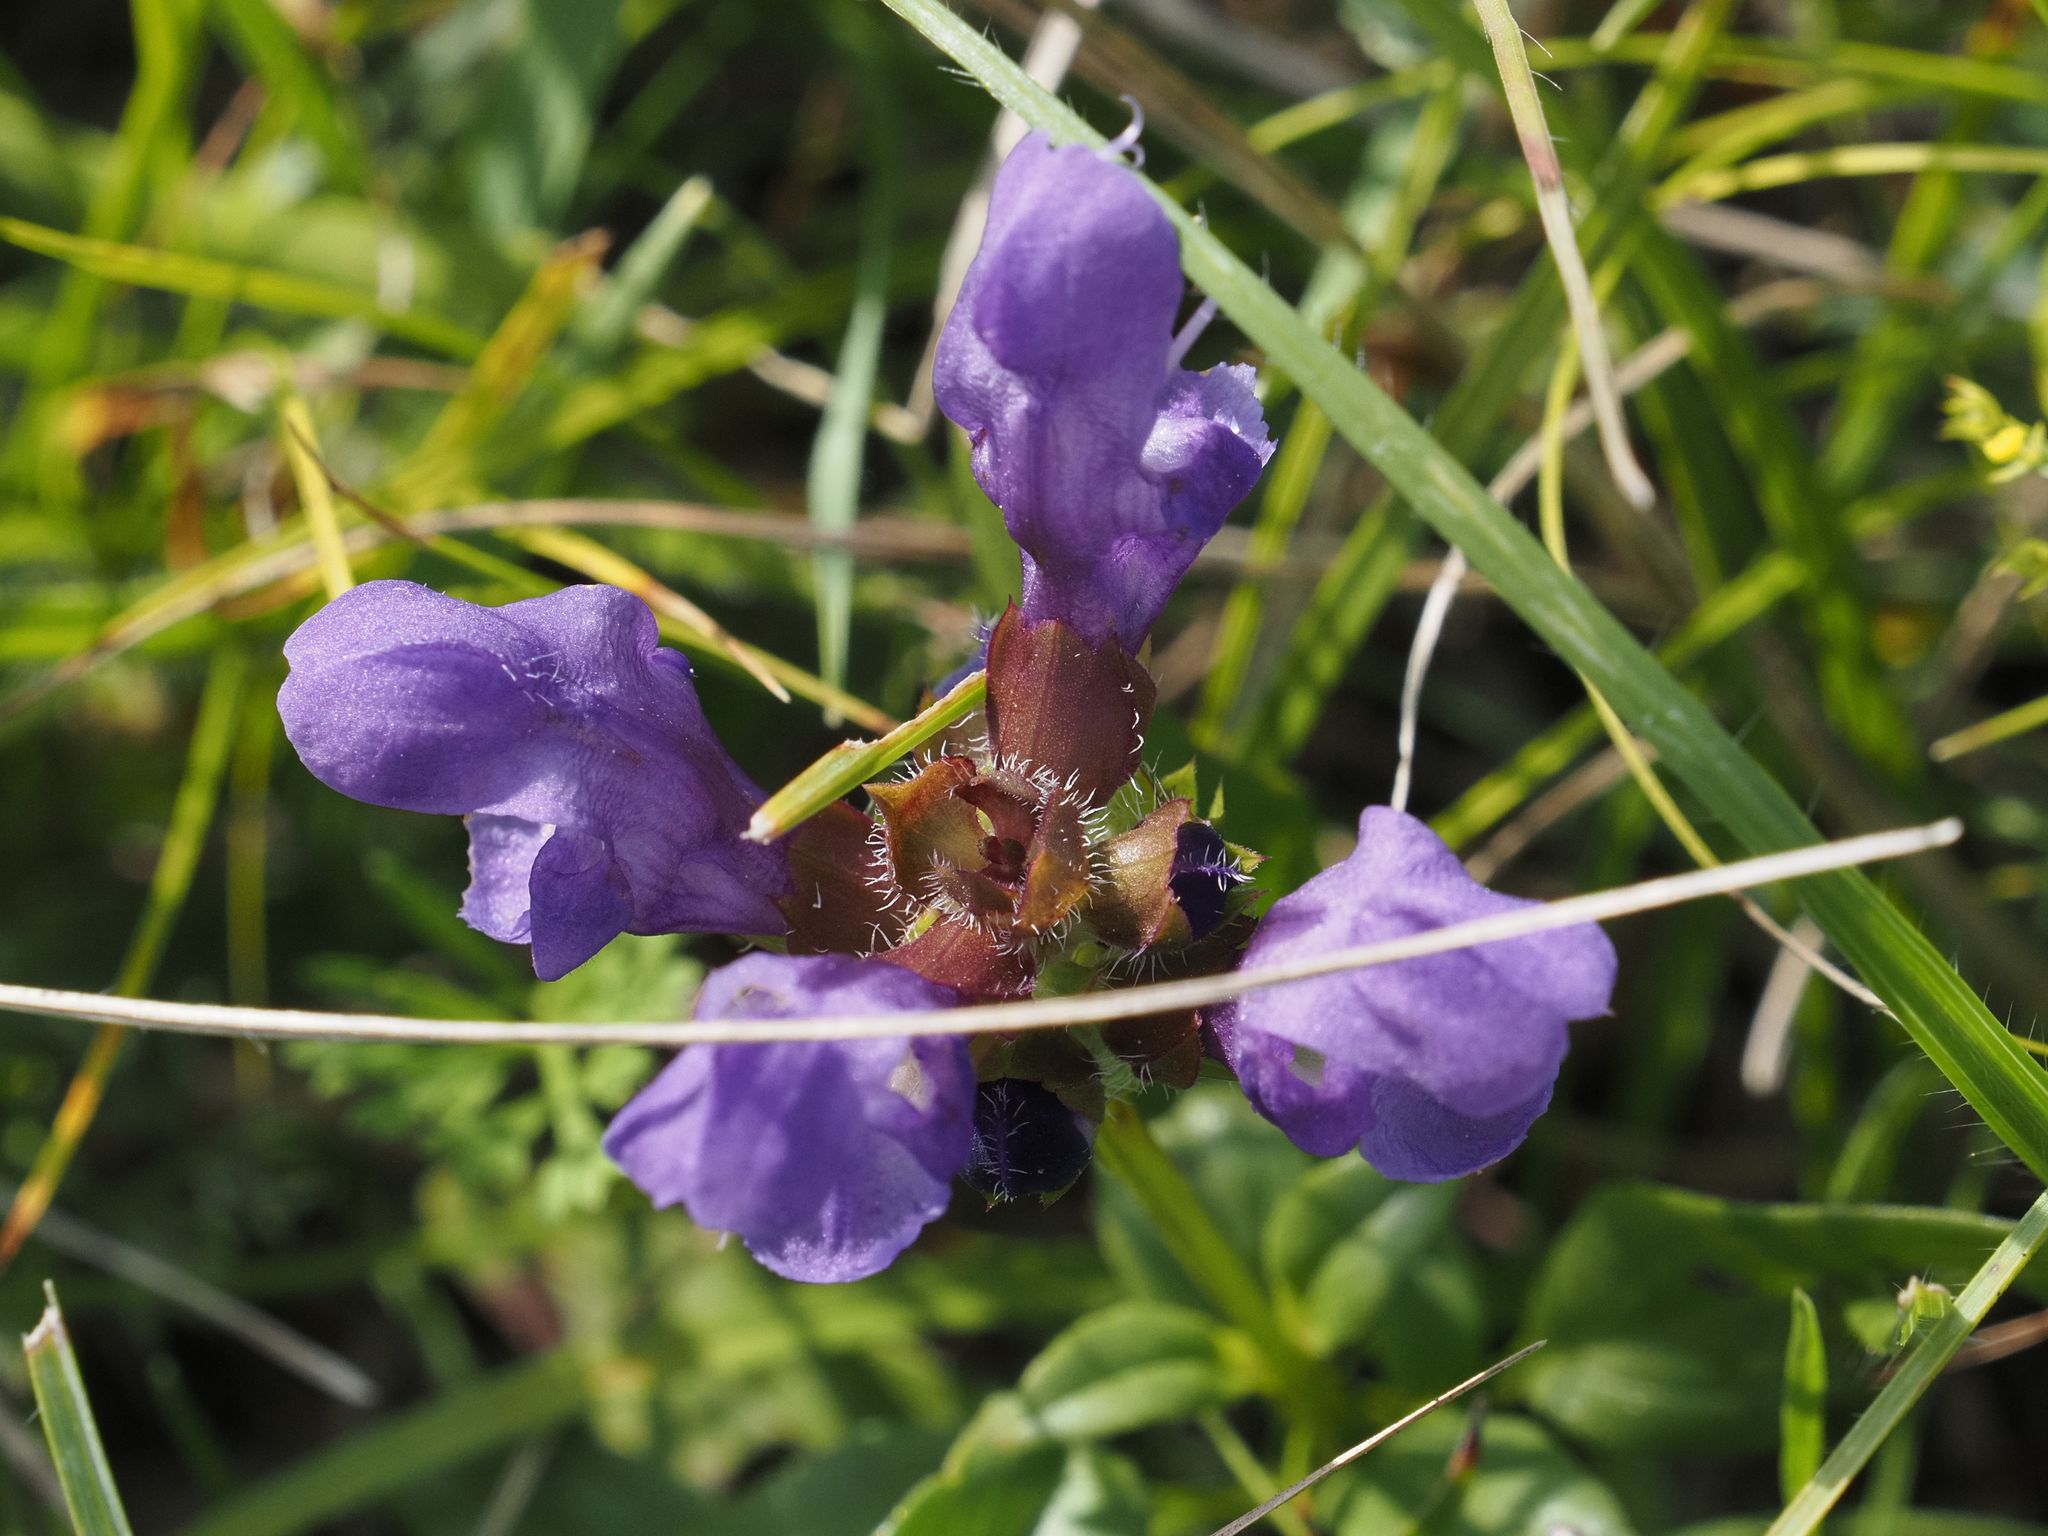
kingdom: Plantae
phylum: Tracheophyta
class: Magnoliopsida
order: Lamiales
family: Lamiaceae
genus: Prunella
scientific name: Prunella grandiflora
